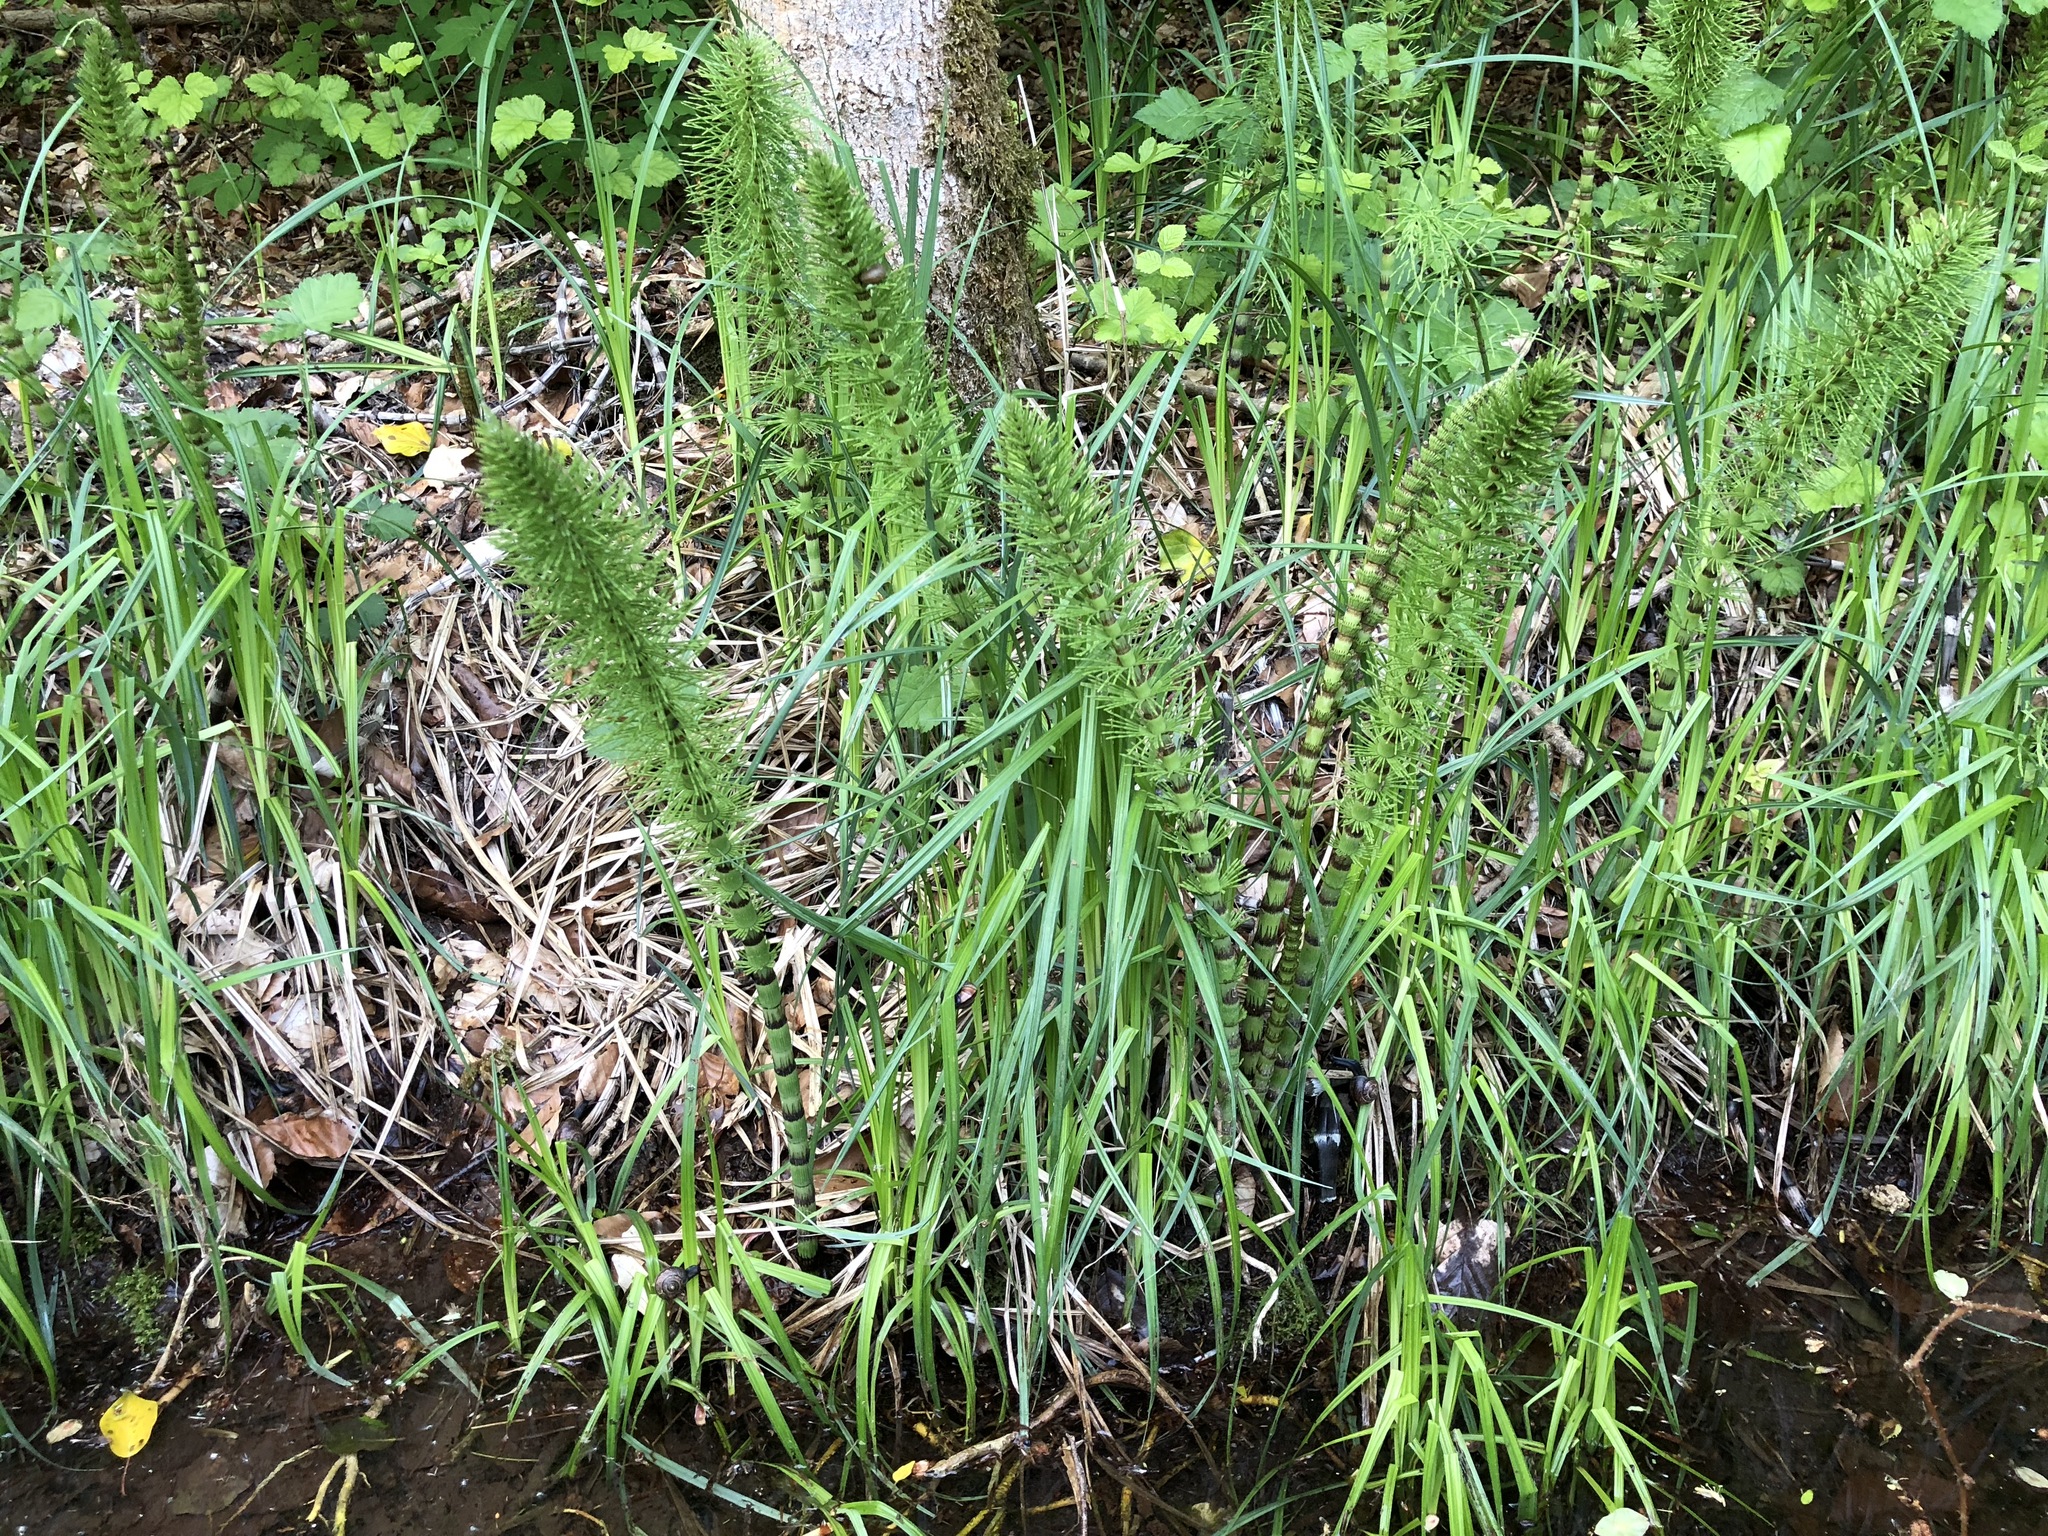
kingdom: Plantae
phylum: Tracheophyta
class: Polypodiopsida
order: Equisetales
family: Equisetaceae
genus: Equisetum
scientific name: Equisetum telmateia
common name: Great horsetail
